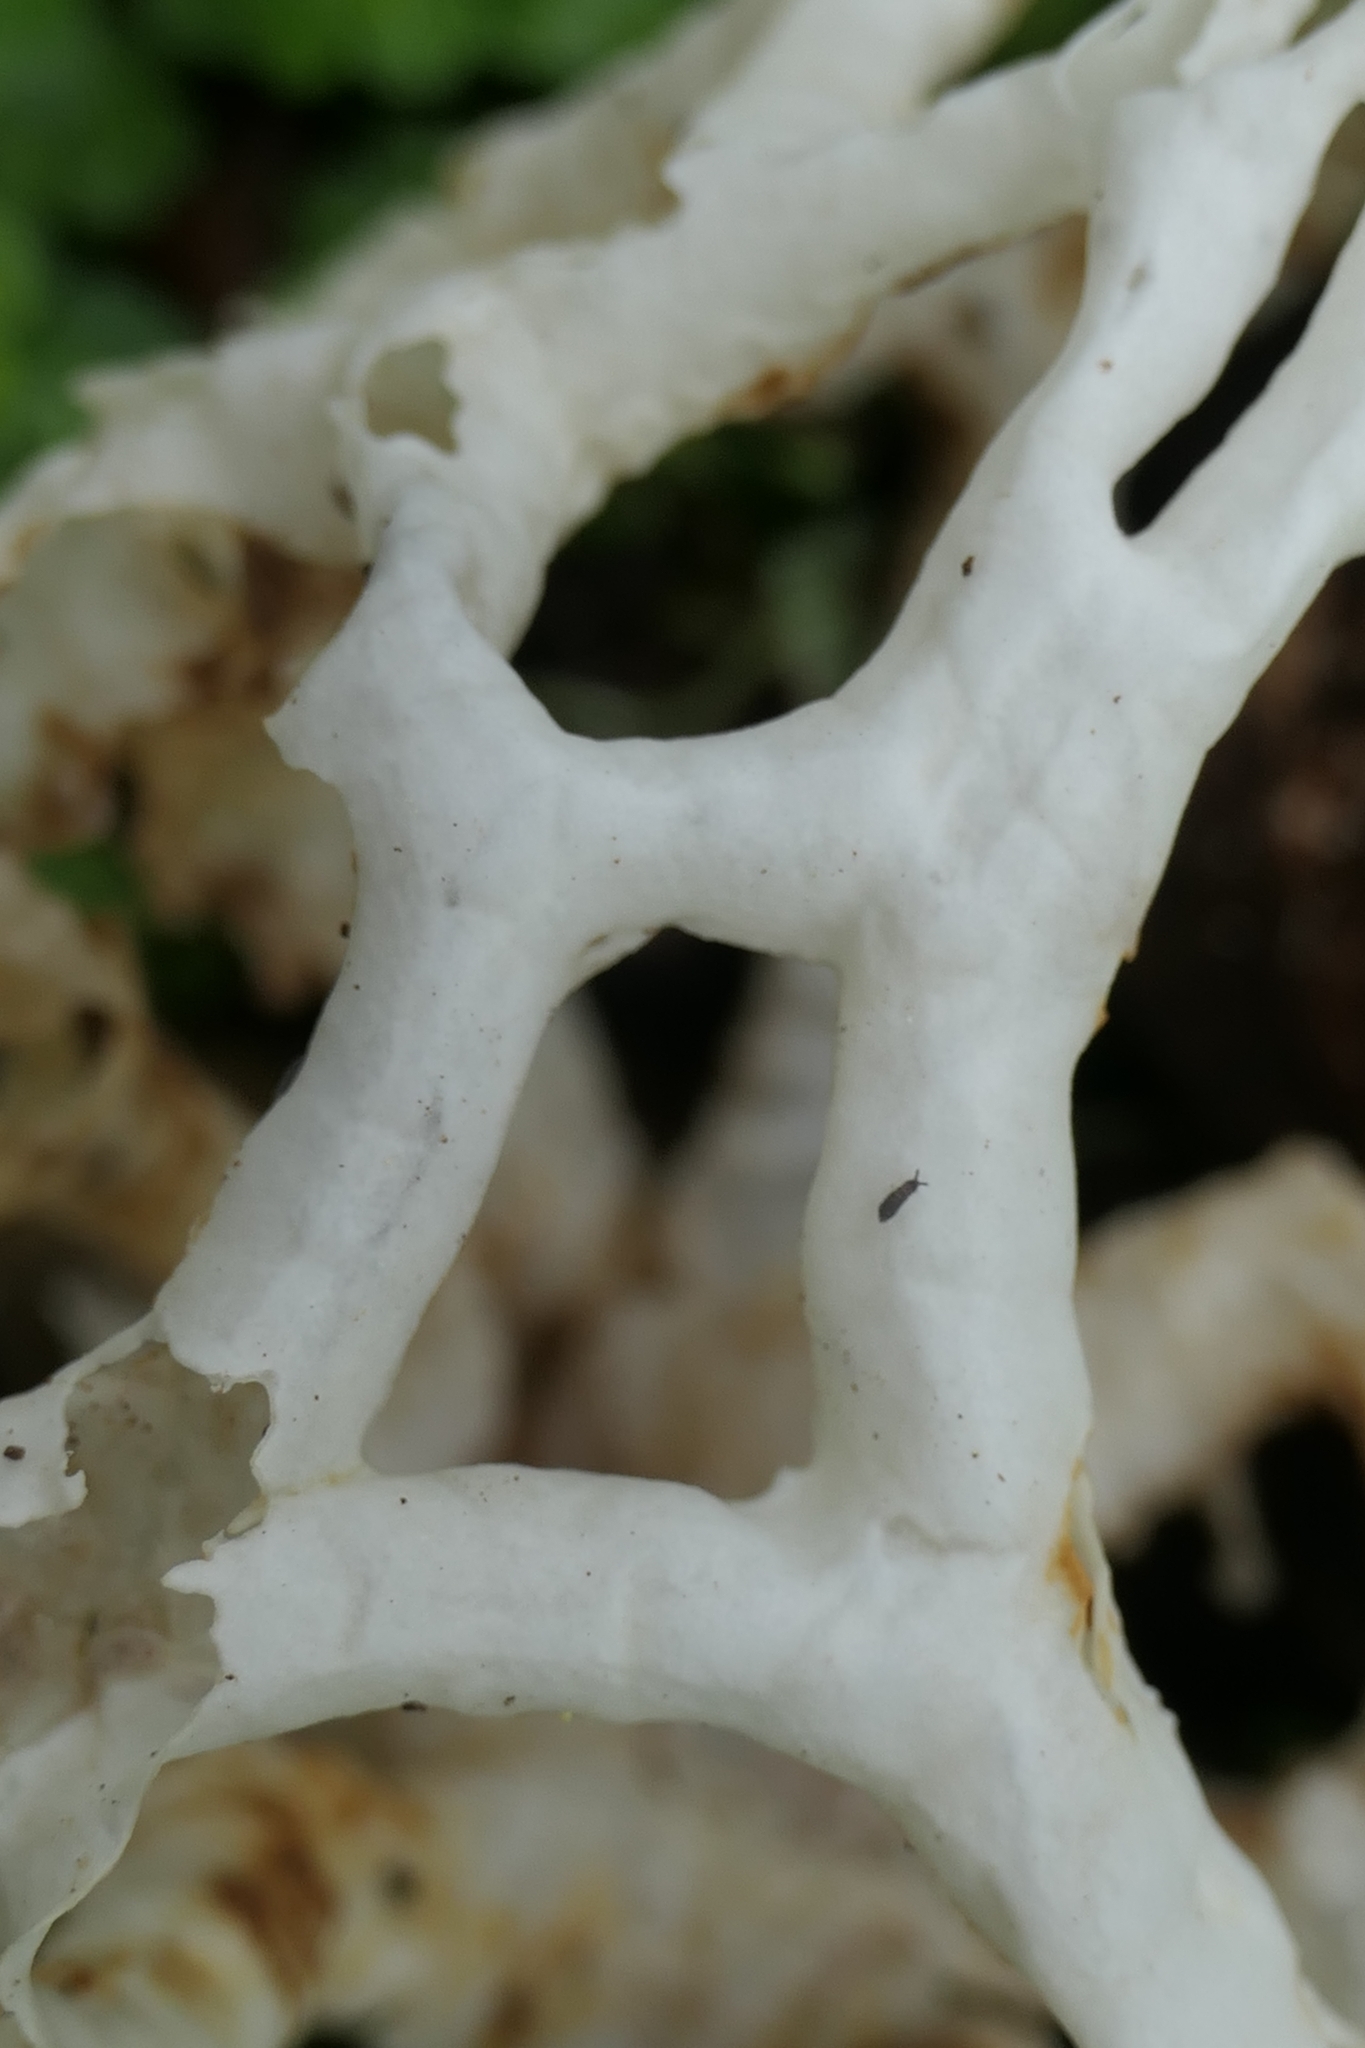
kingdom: Fungi
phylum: Basidiomycota
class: Agaricomycetes
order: Phallales
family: Phallaceae
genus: Ileodictyon
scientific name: Ileodictyon cibarium
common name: Basket fungus
